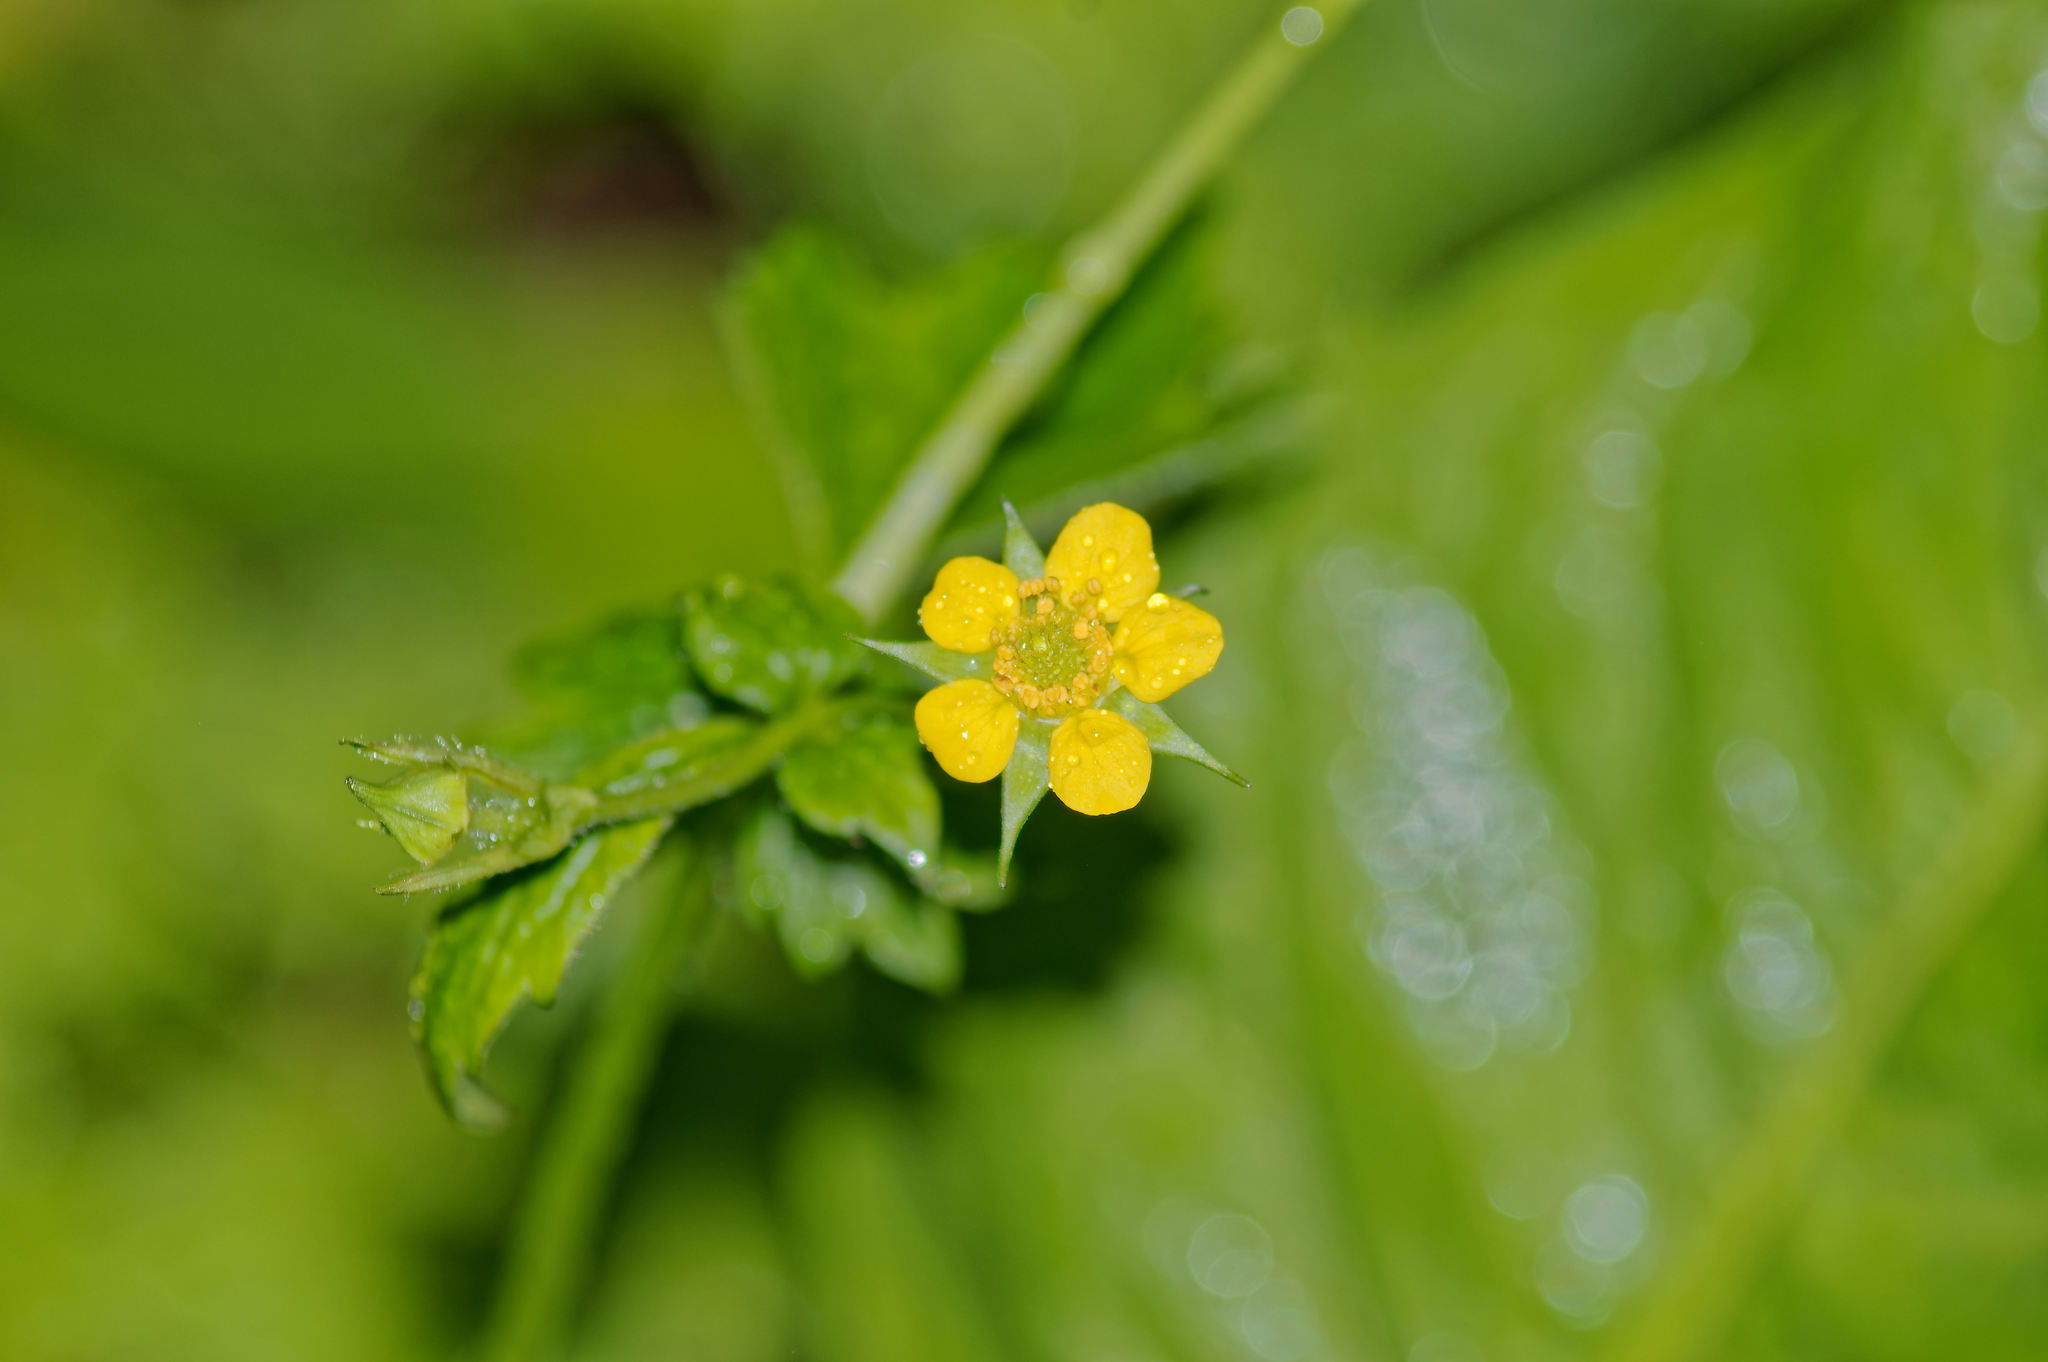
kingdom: Plantae
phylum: Tracheophyta
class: Magnoliopsida
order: Rosales
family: Rosaceae
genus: Geum
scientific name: Geum urbanum
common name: Wood avens
